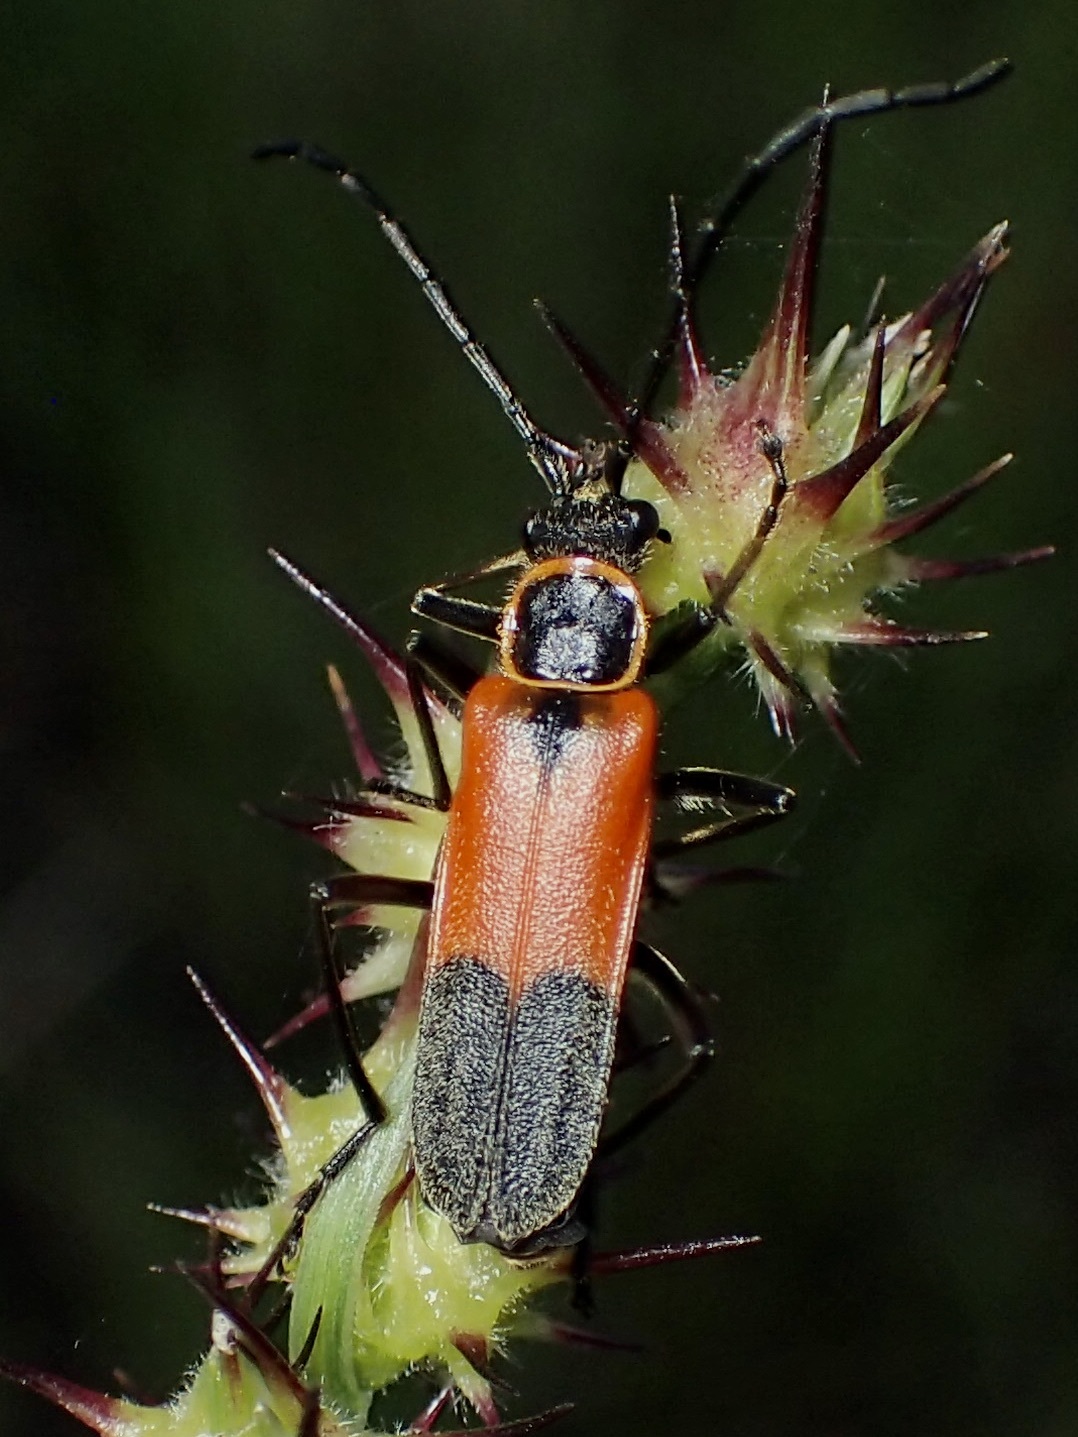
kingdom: Animalia
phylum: Arthropoda
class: Insecta
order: Coleoptera
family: Cantharidae
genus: Chauliognathus
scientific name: Chauliognathus limbicollis
